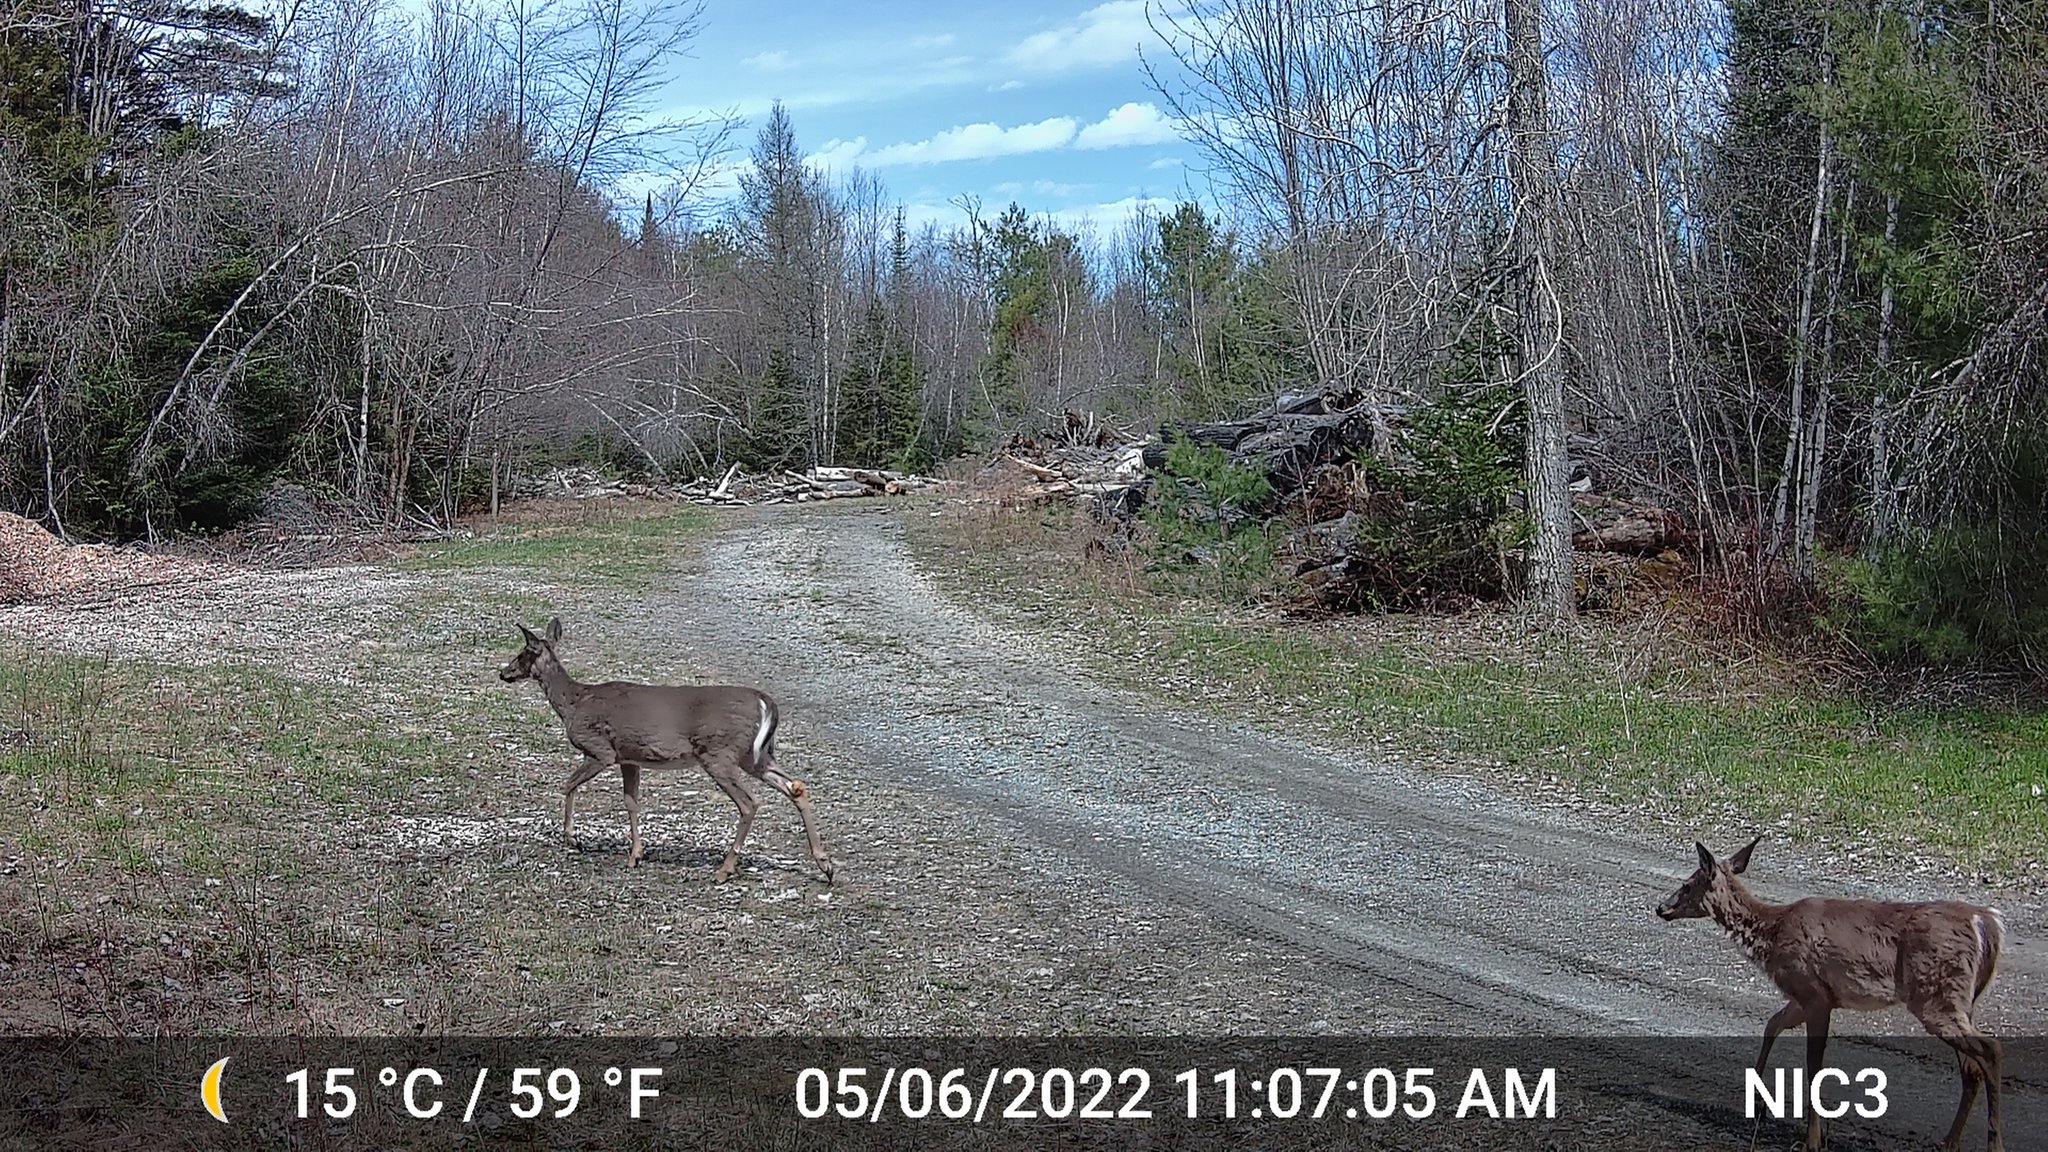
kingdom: Animalia
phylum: Chordata
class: Mammalia
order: Artiodactyla
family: Cervidae
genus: Odocoileus
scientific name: Odocoileus virginianus
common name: White-tailed deer
